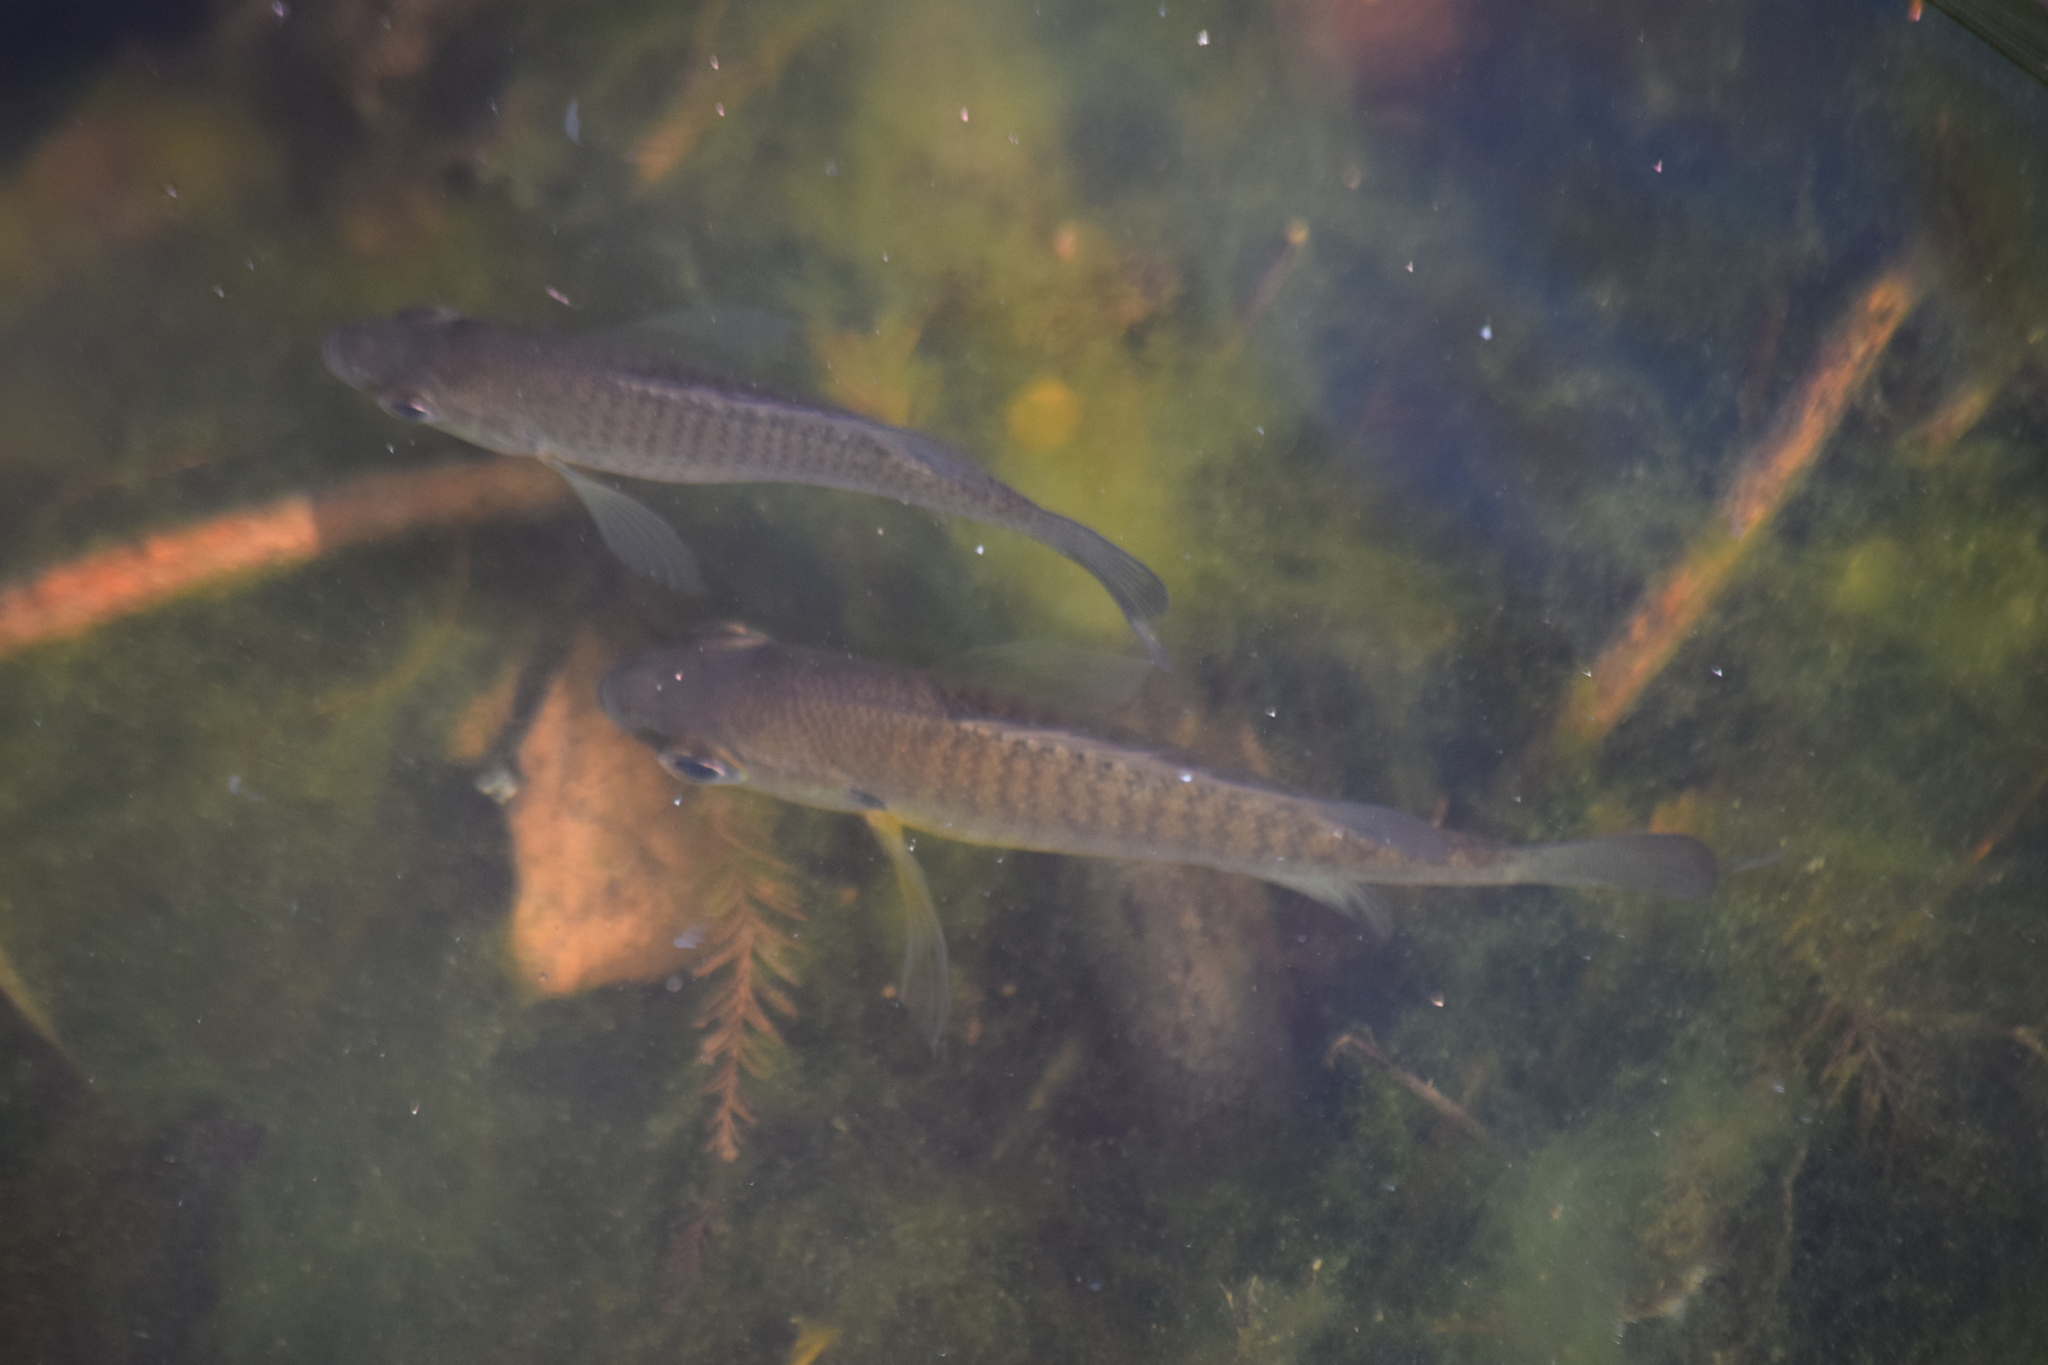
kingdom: Animalia
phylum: Chordata
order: Perciformes
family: Centrarchidae
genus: Lepomis
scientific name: Lepomis macrochirus
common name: Bluegill
